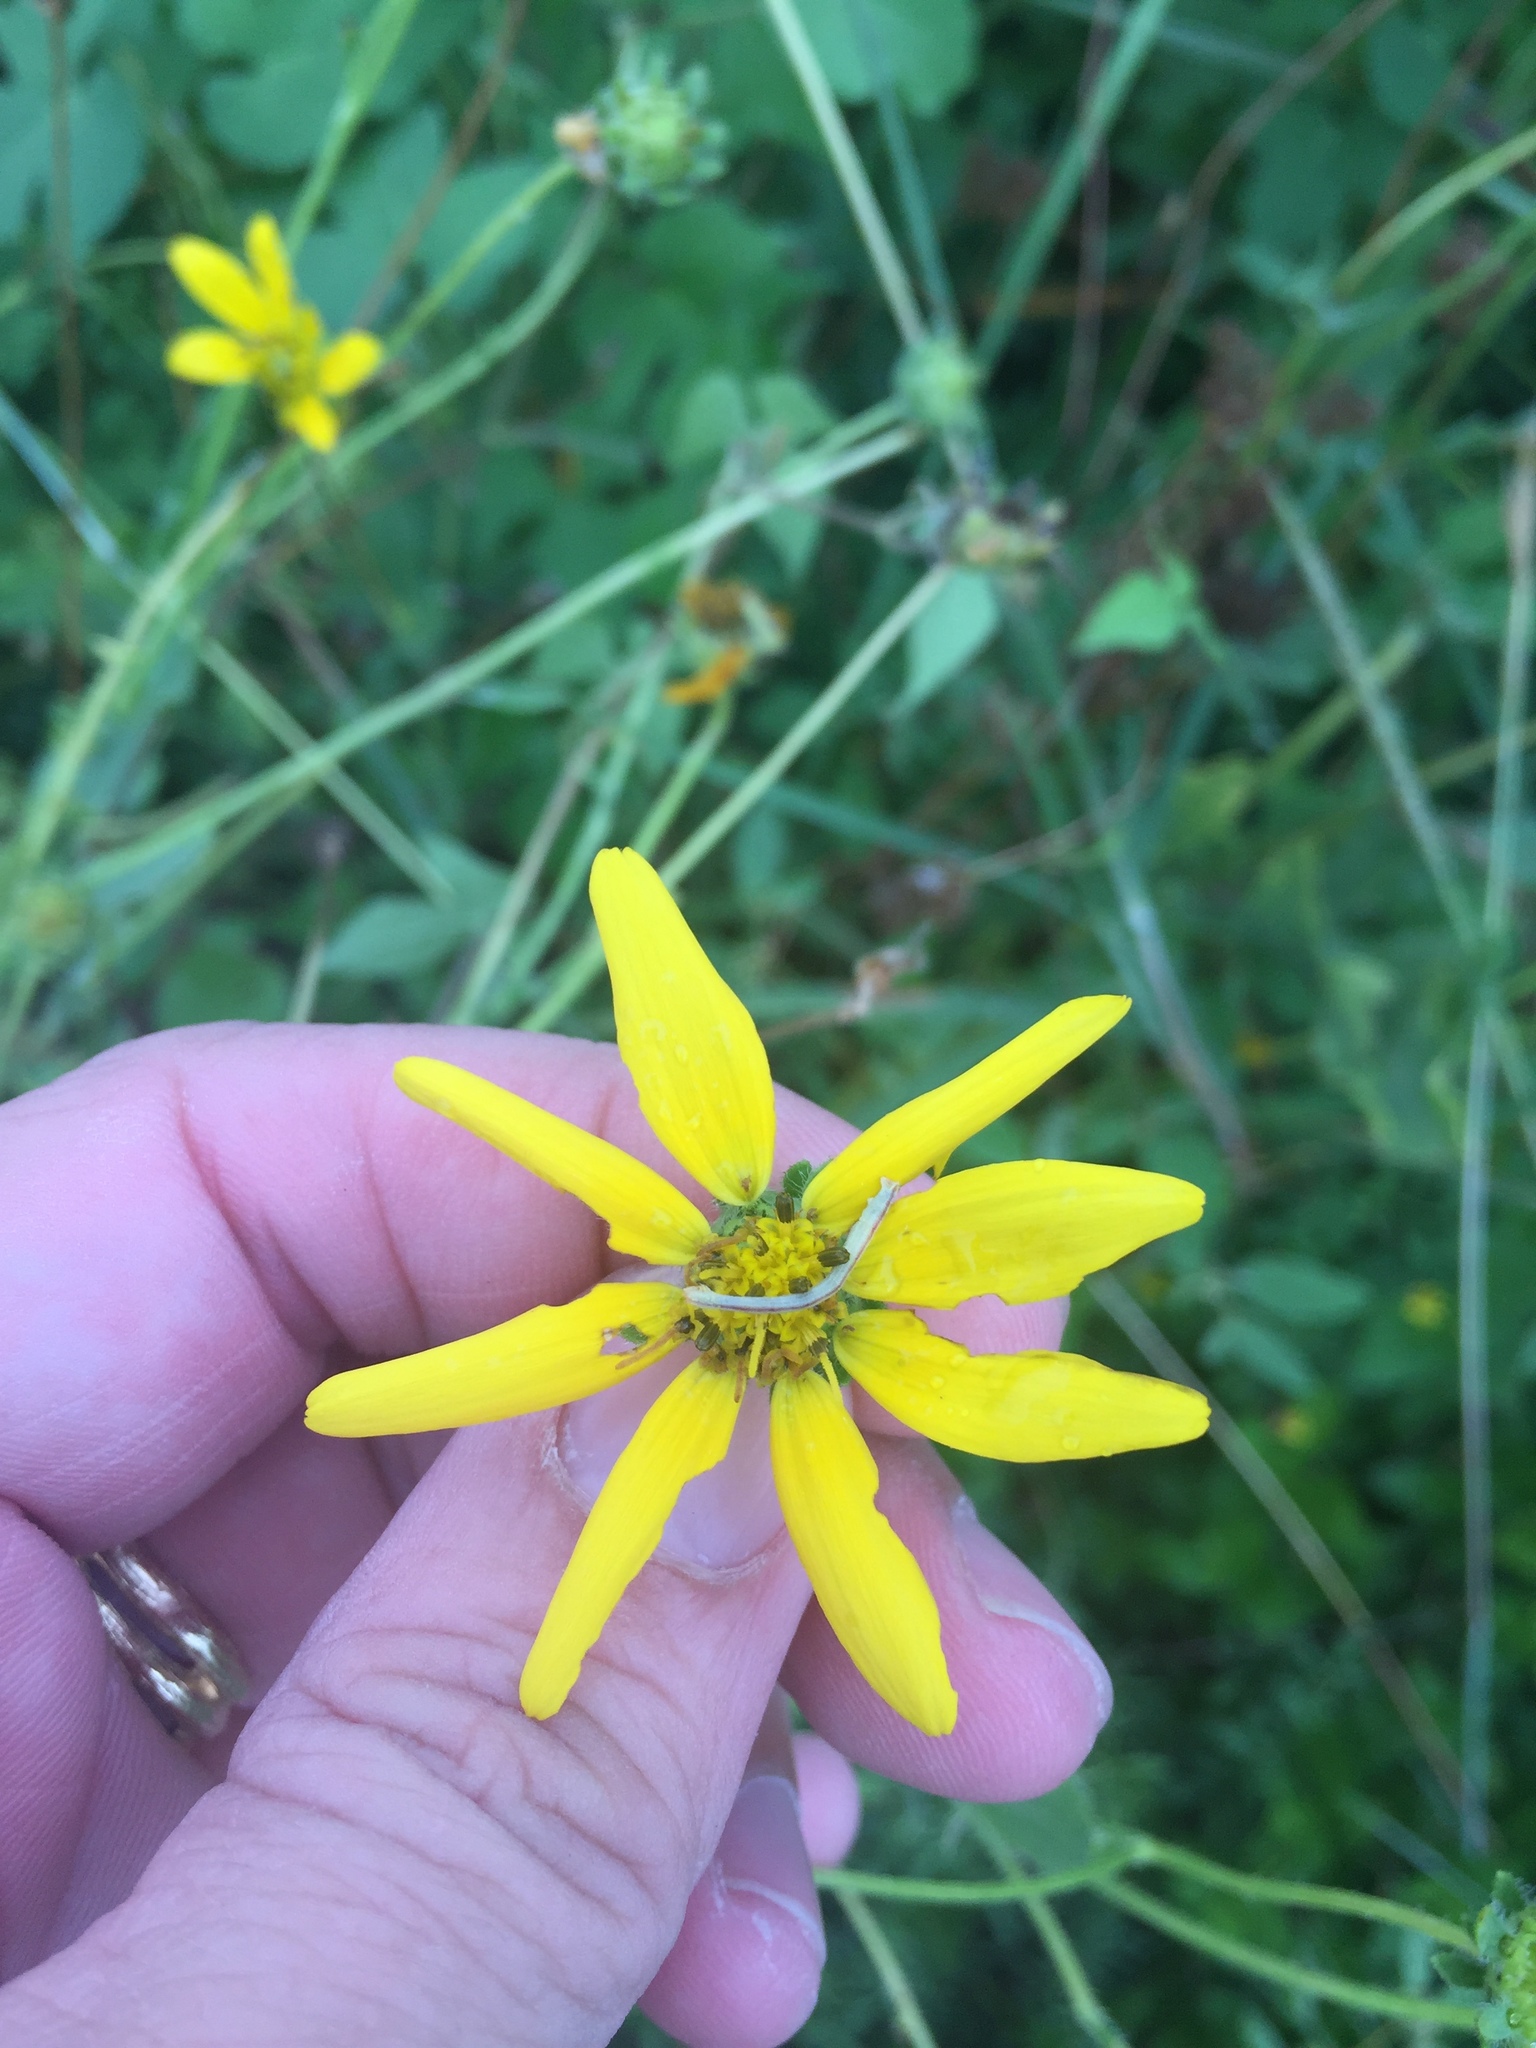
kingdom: Plantae
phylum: Tracheophyta
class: Magnoliopsida
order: Asterales
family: Asteraceae
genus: Engelmannia
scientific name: Engelmannia peristenia
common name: Engelmann's daisy
